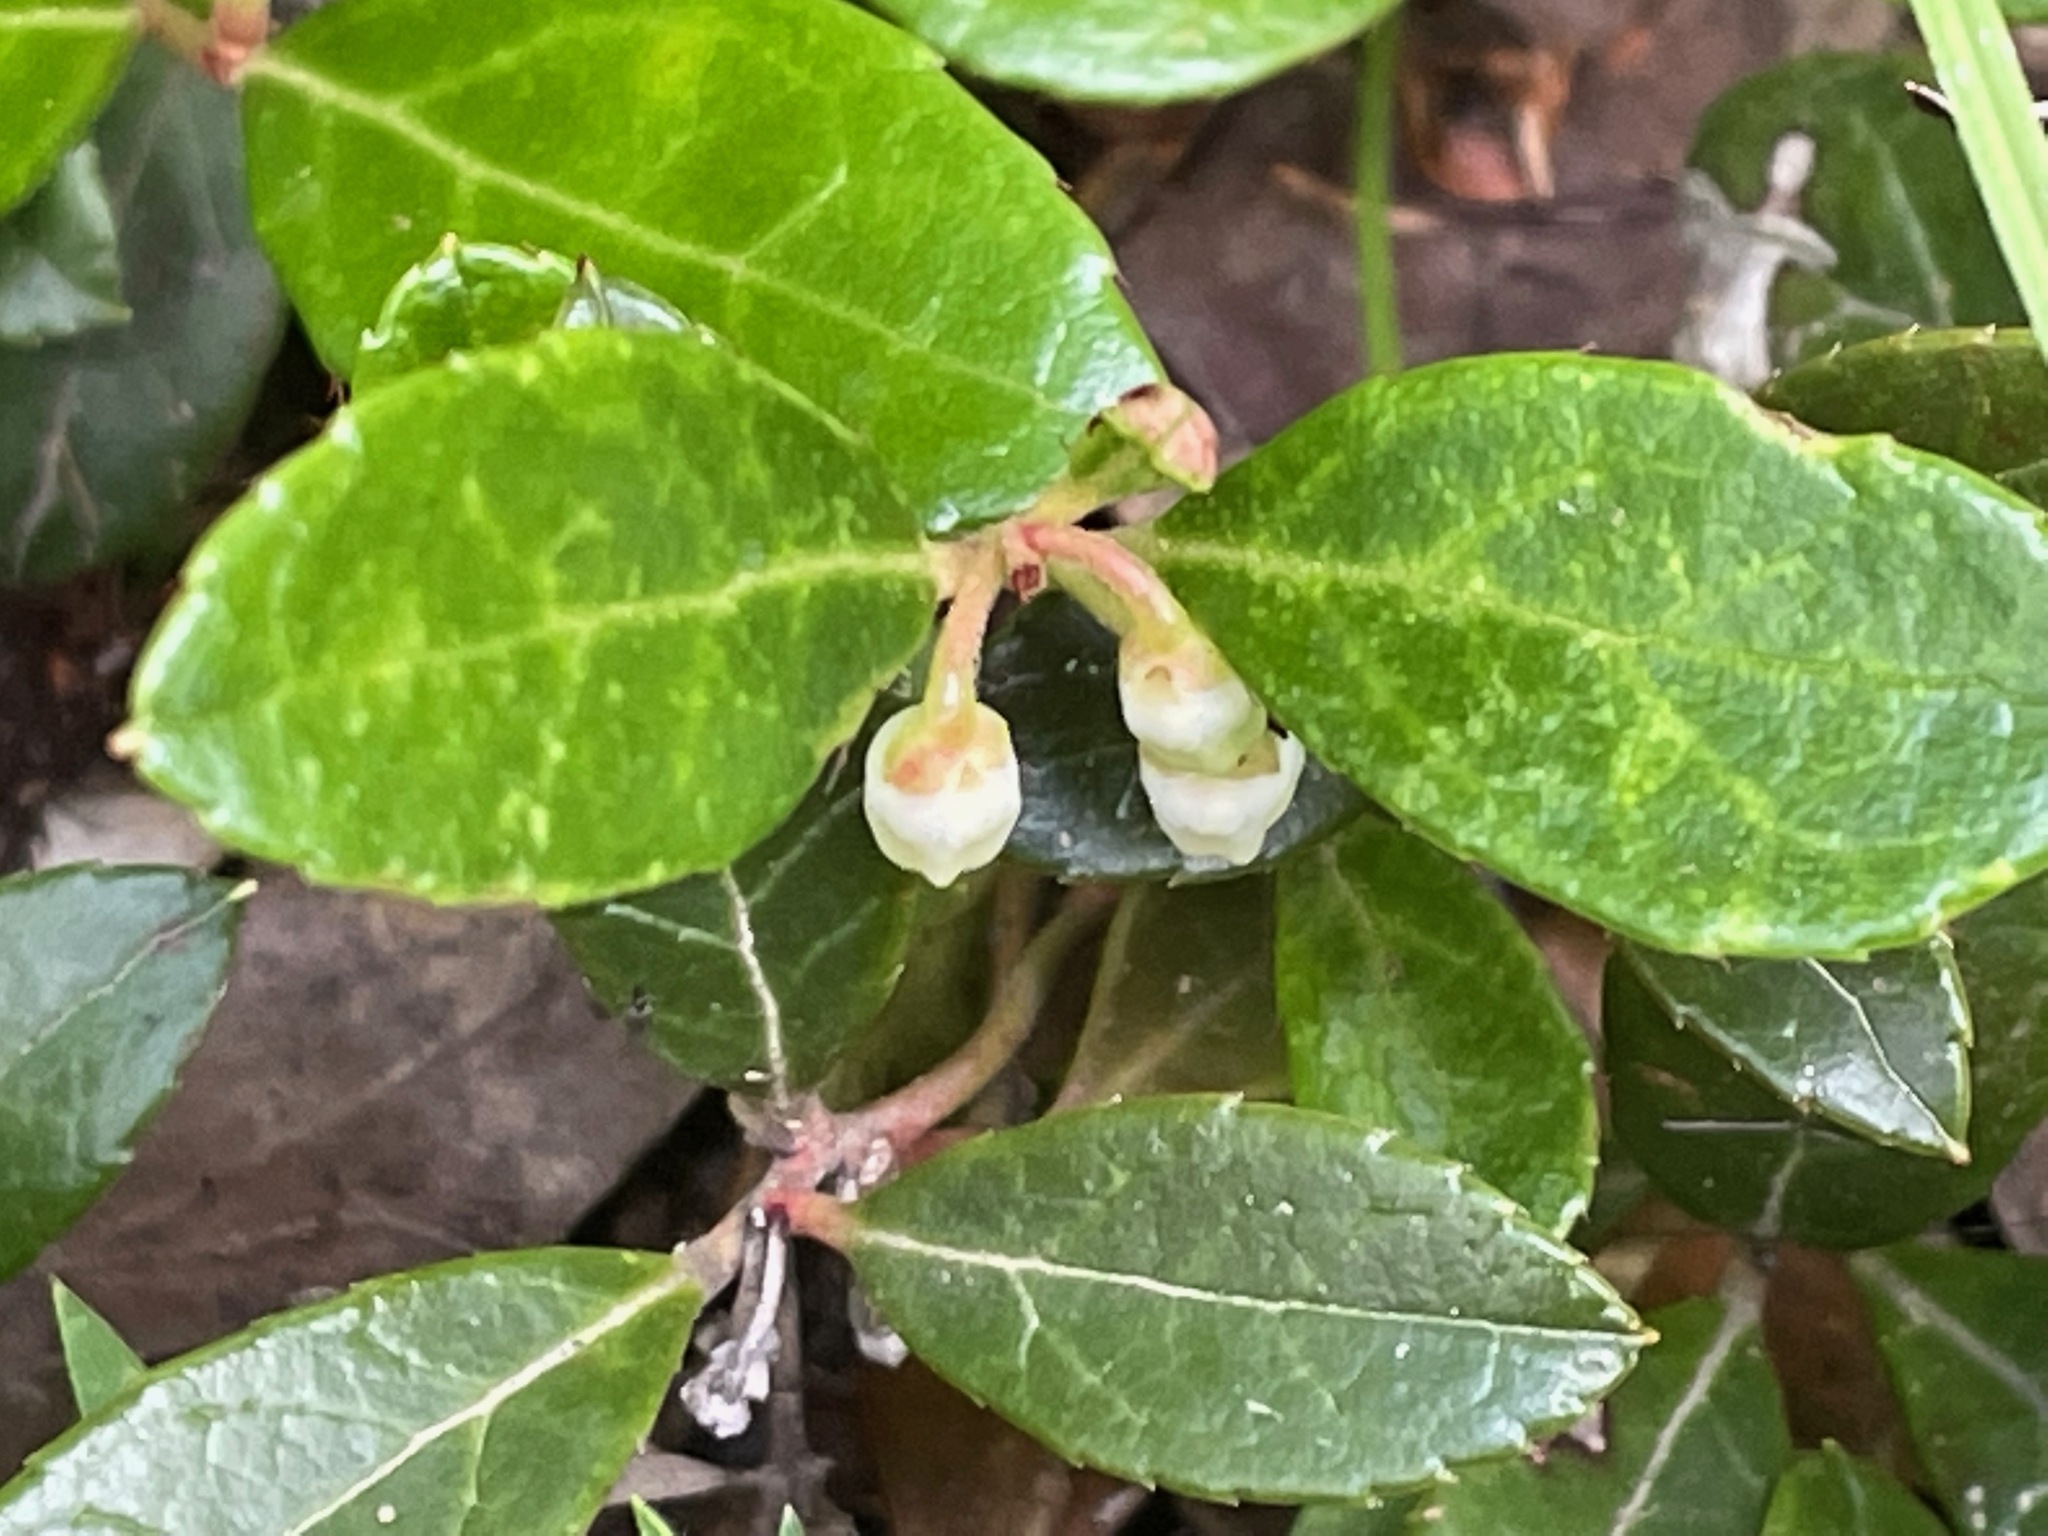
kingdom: Plantae
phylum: Tracheophyta
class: Magnoliopsida
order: Ericales
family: Ericaceae
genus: Gaultheria
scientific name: Gaultheria procumbens
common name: Checkerberry
